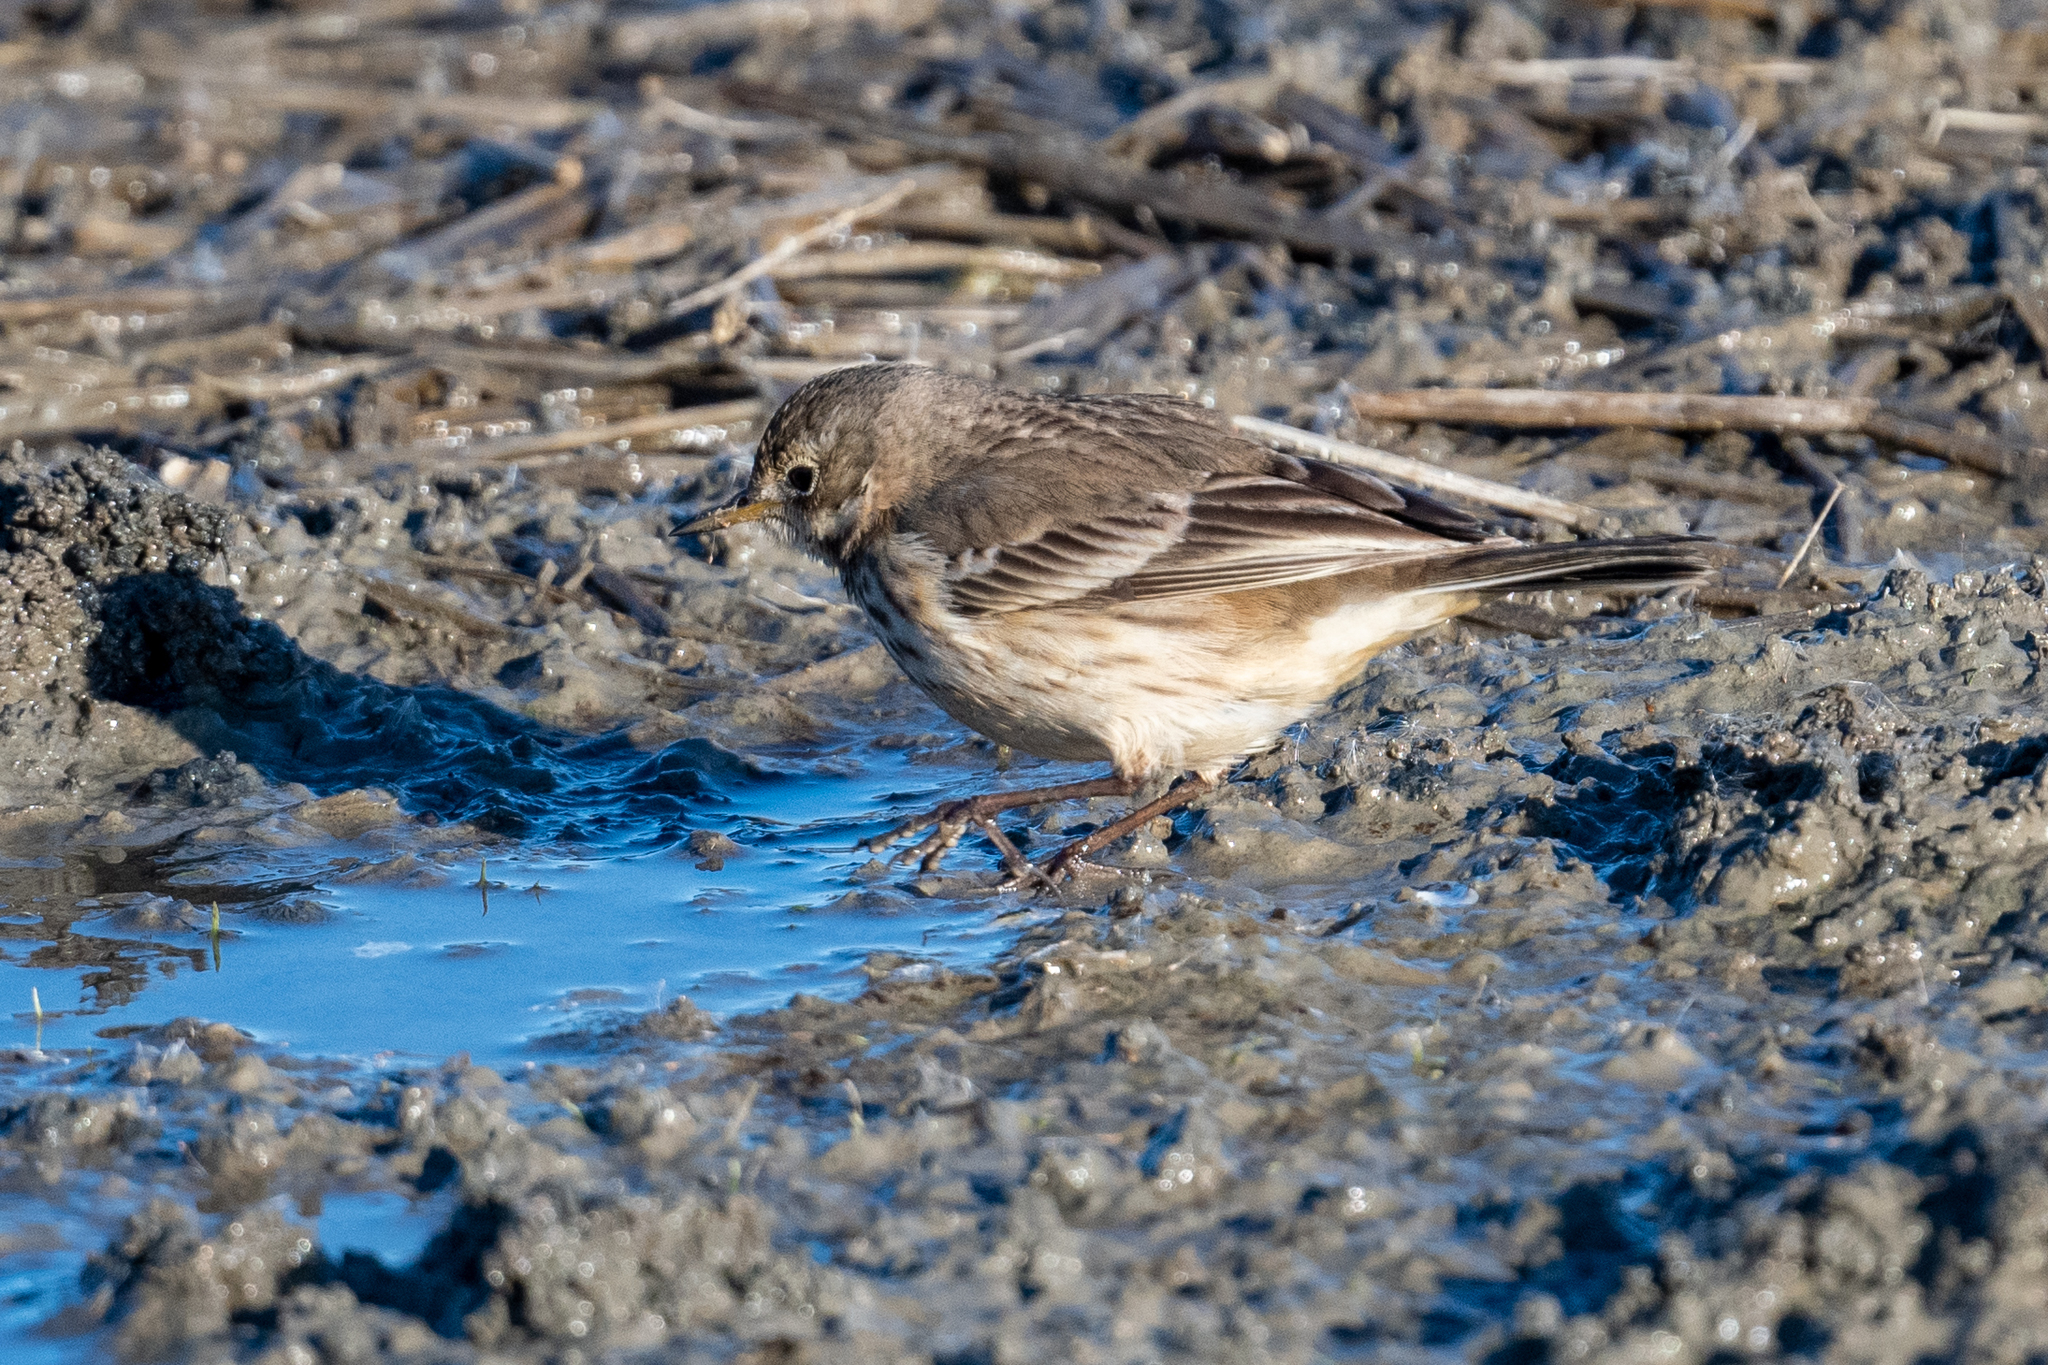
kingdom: Animalia
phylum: Chordata
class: Aves
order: Passeriformes
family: Motacillidae
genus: Anthus
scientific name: Anthus rubescens
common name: Buff-bellied pipit
